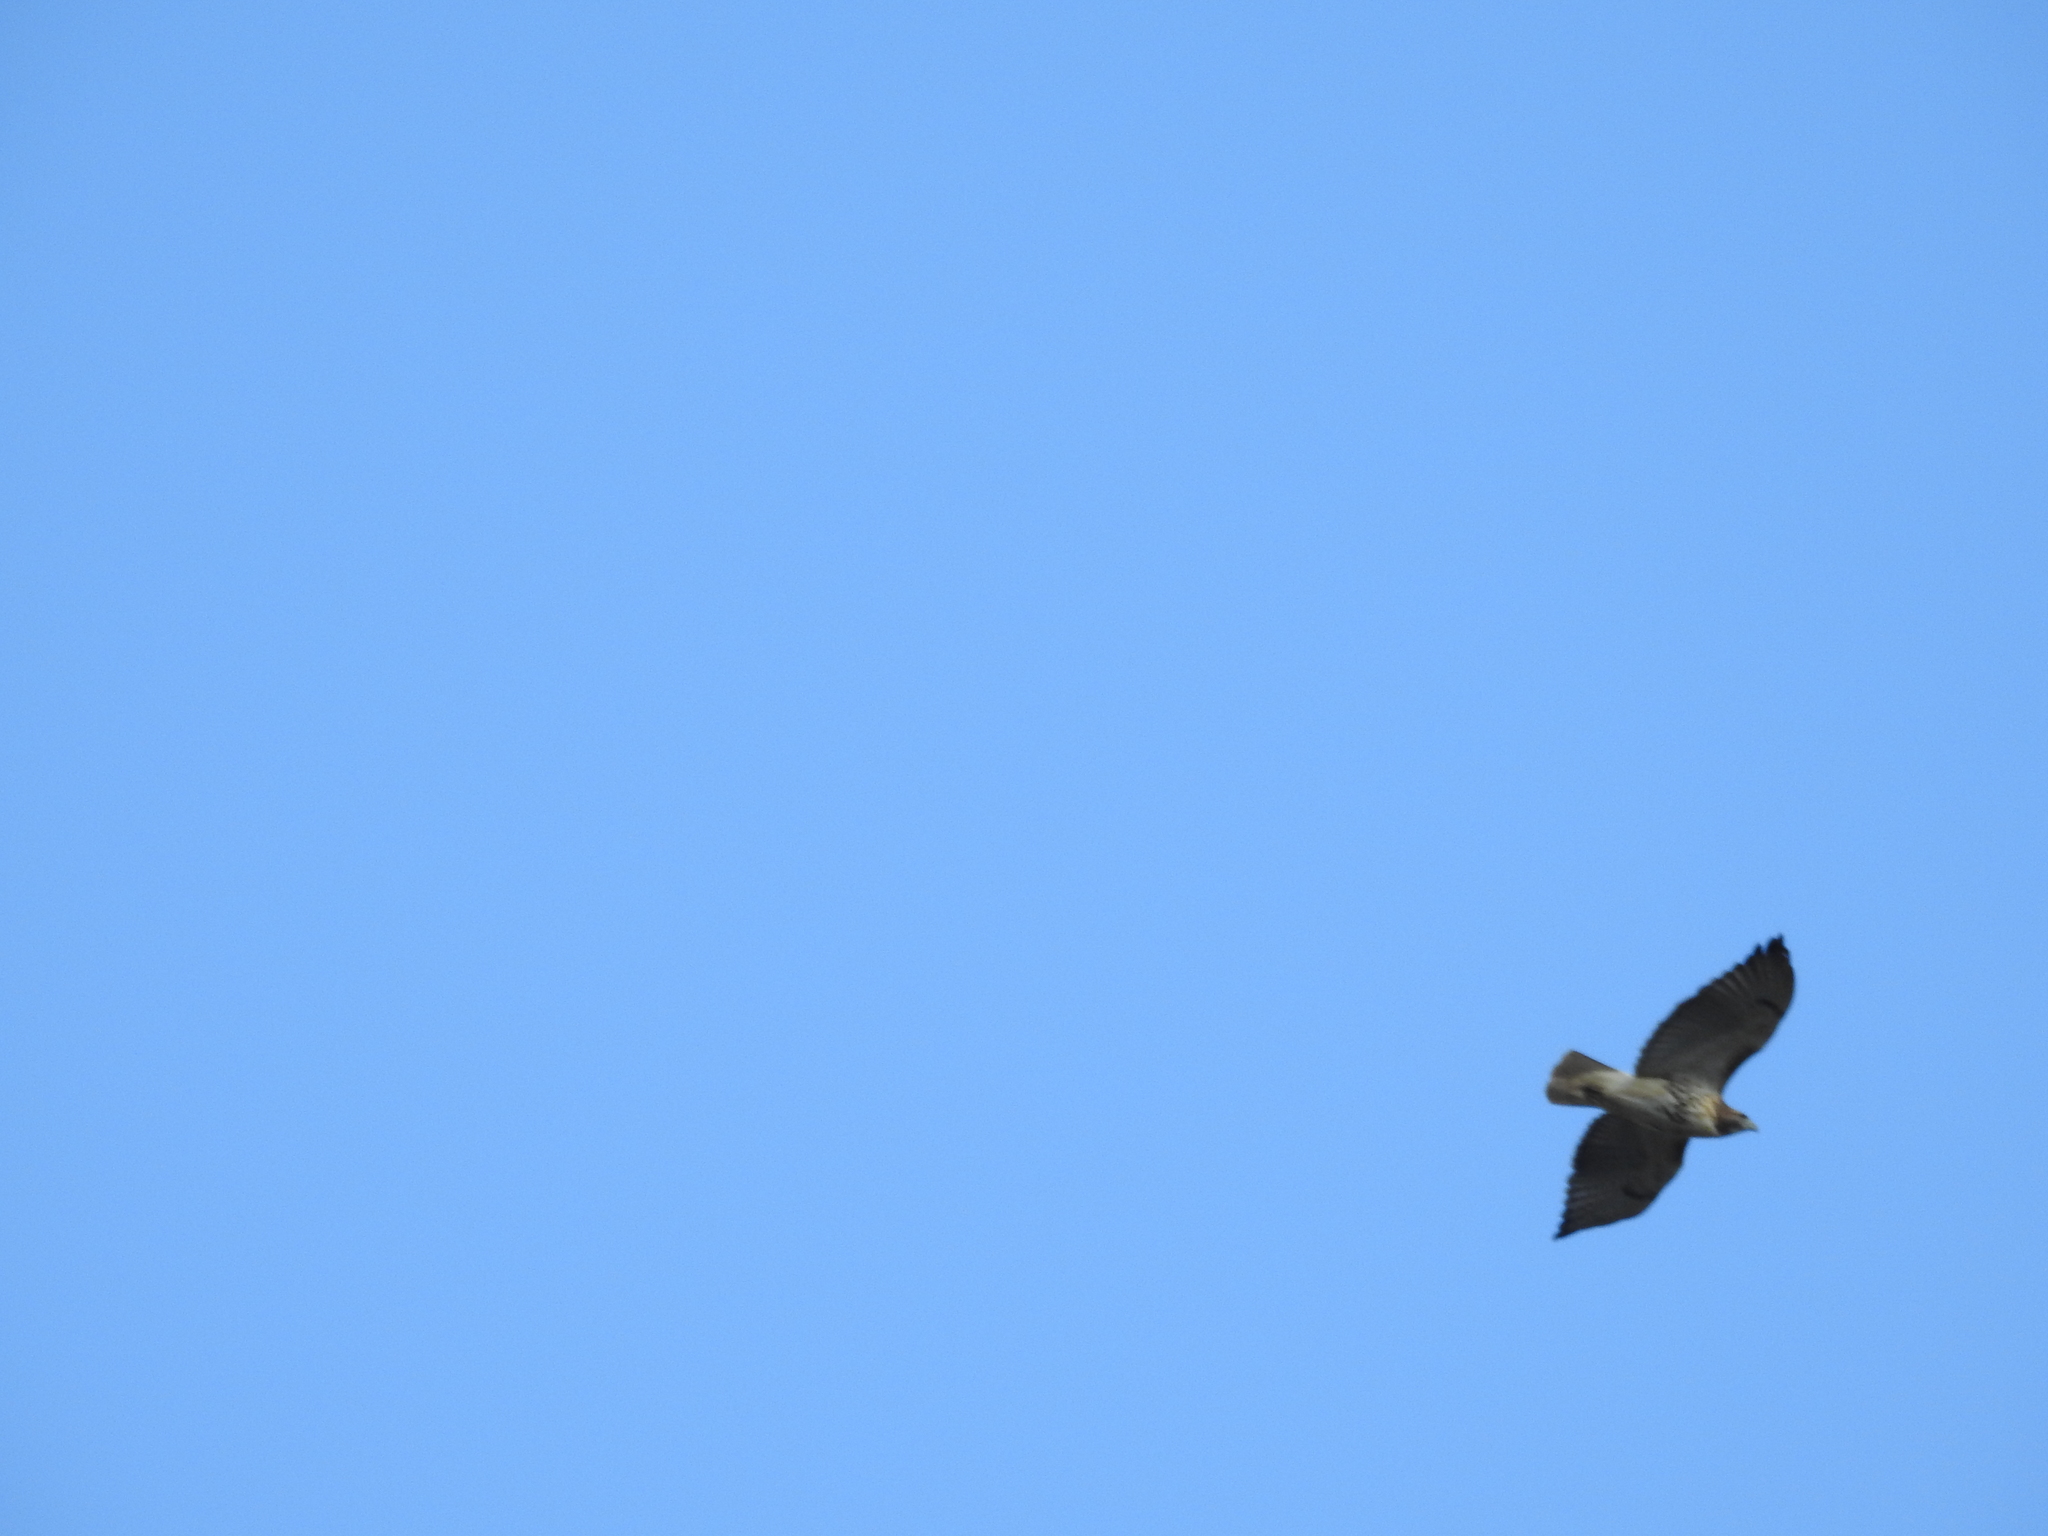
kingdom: Animalia
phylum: Chordata
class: Aves
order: Accipitriformes
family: Accipitridae
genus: Buteo
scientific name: Buteo jamaicensis
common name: Red-tailed hawk
